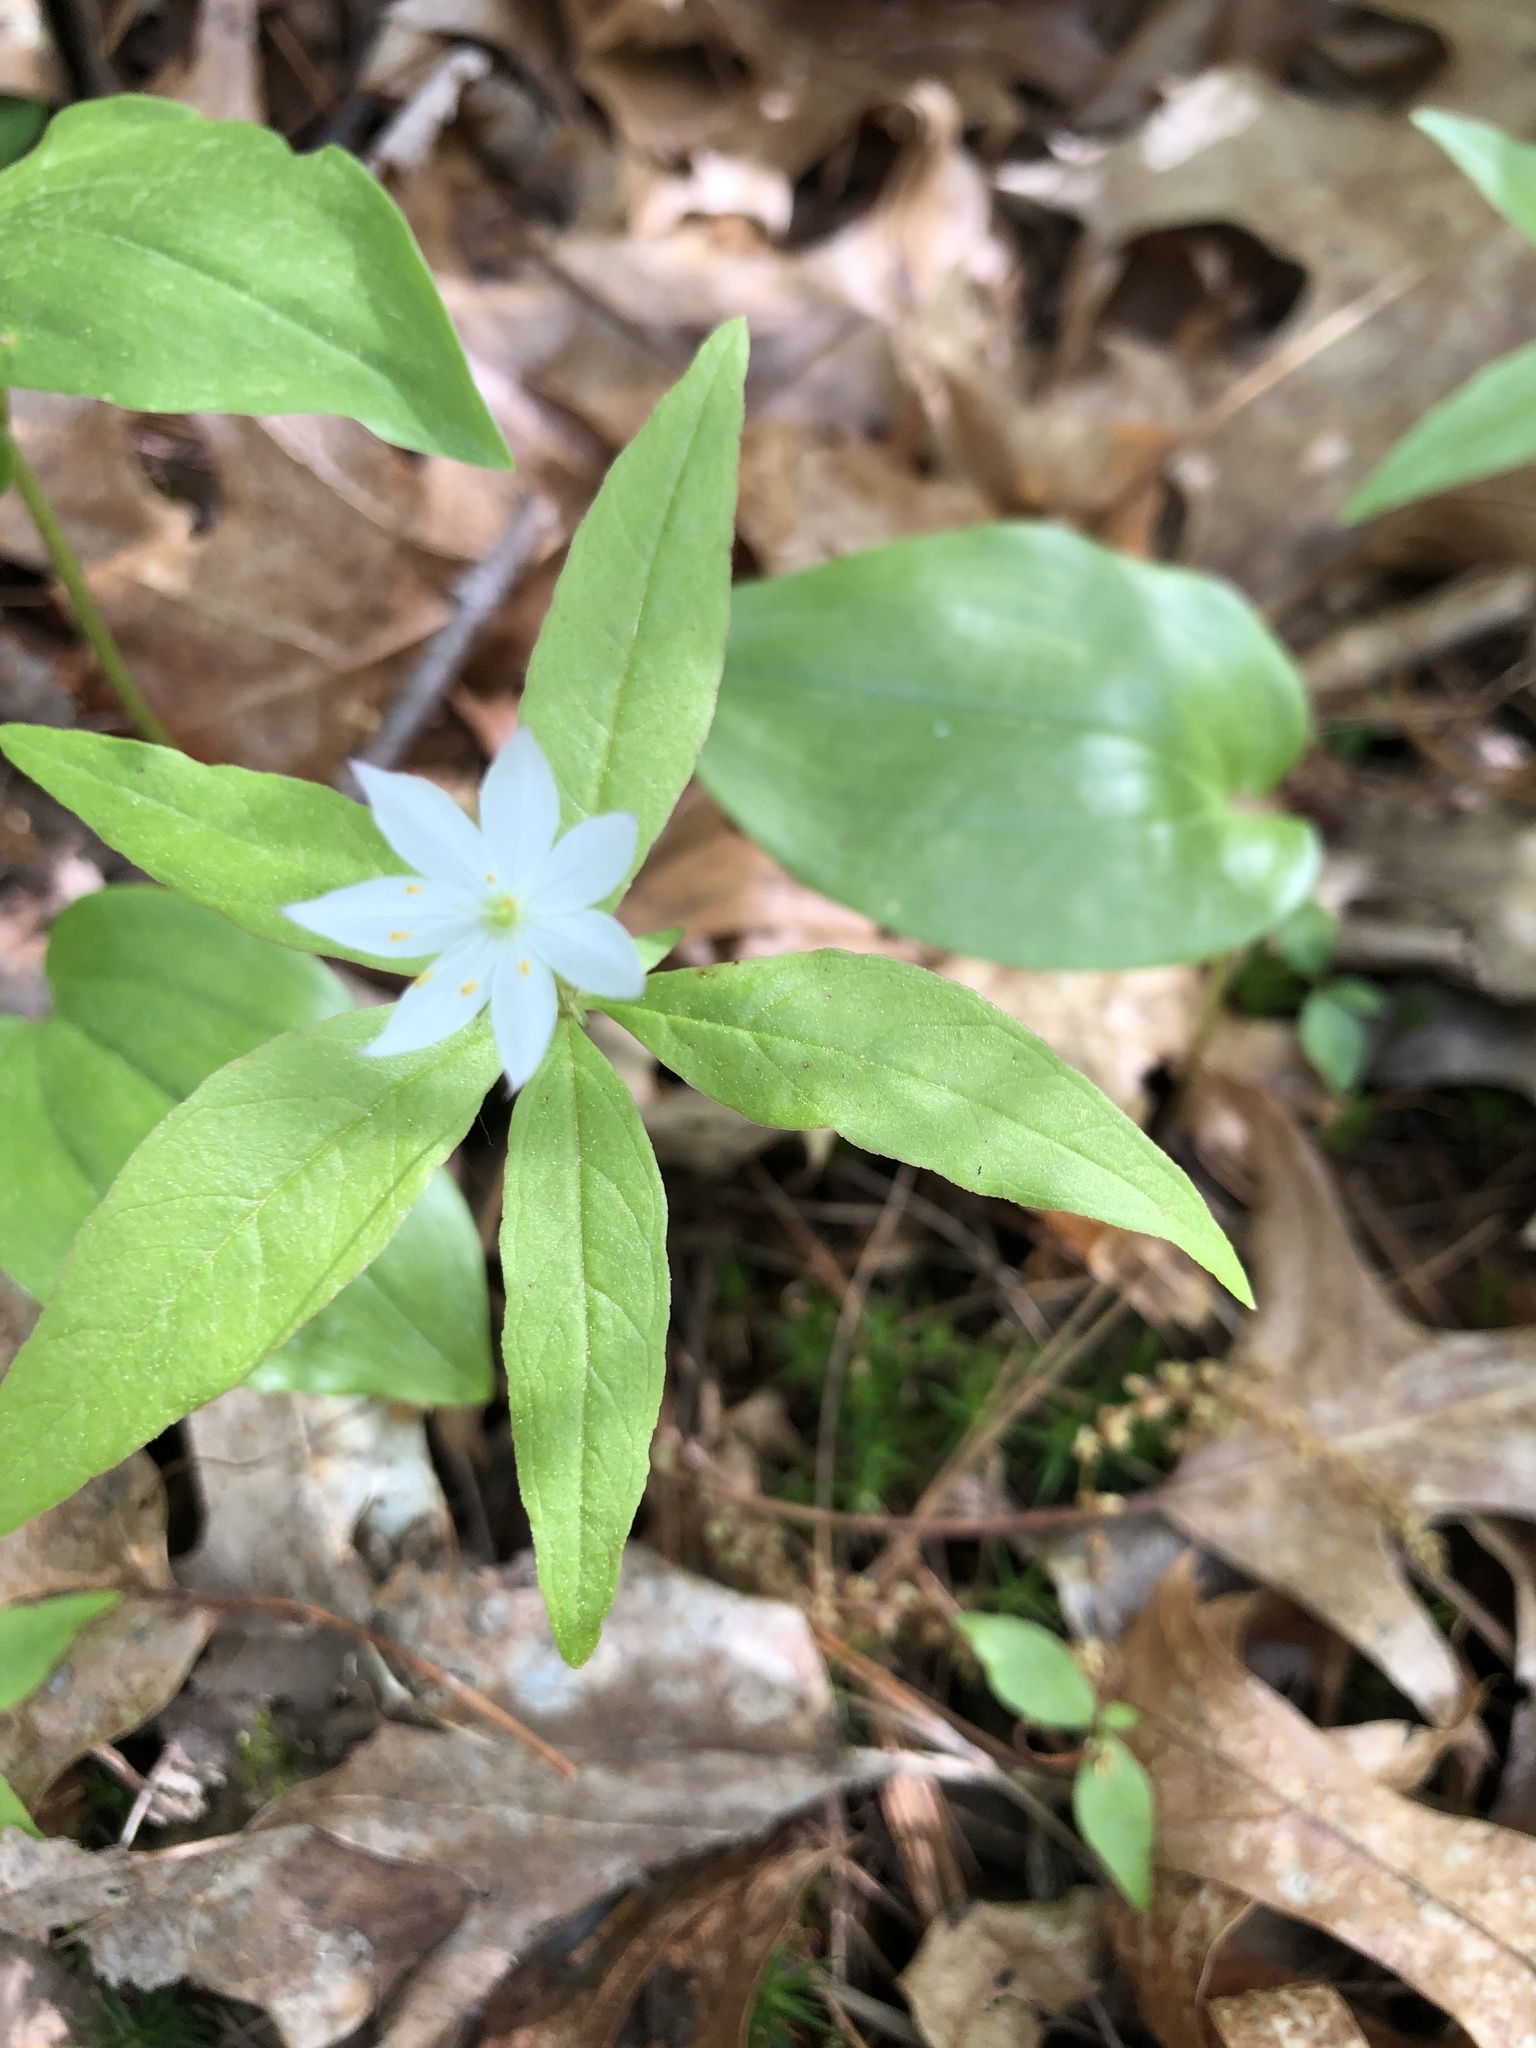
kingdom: Plantae
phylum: Tracheophyta
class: Magnoliopsida
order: Ericales
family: Primulaceae
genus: Lysimachia
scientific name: Lysimachia borealis
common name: American starflower
